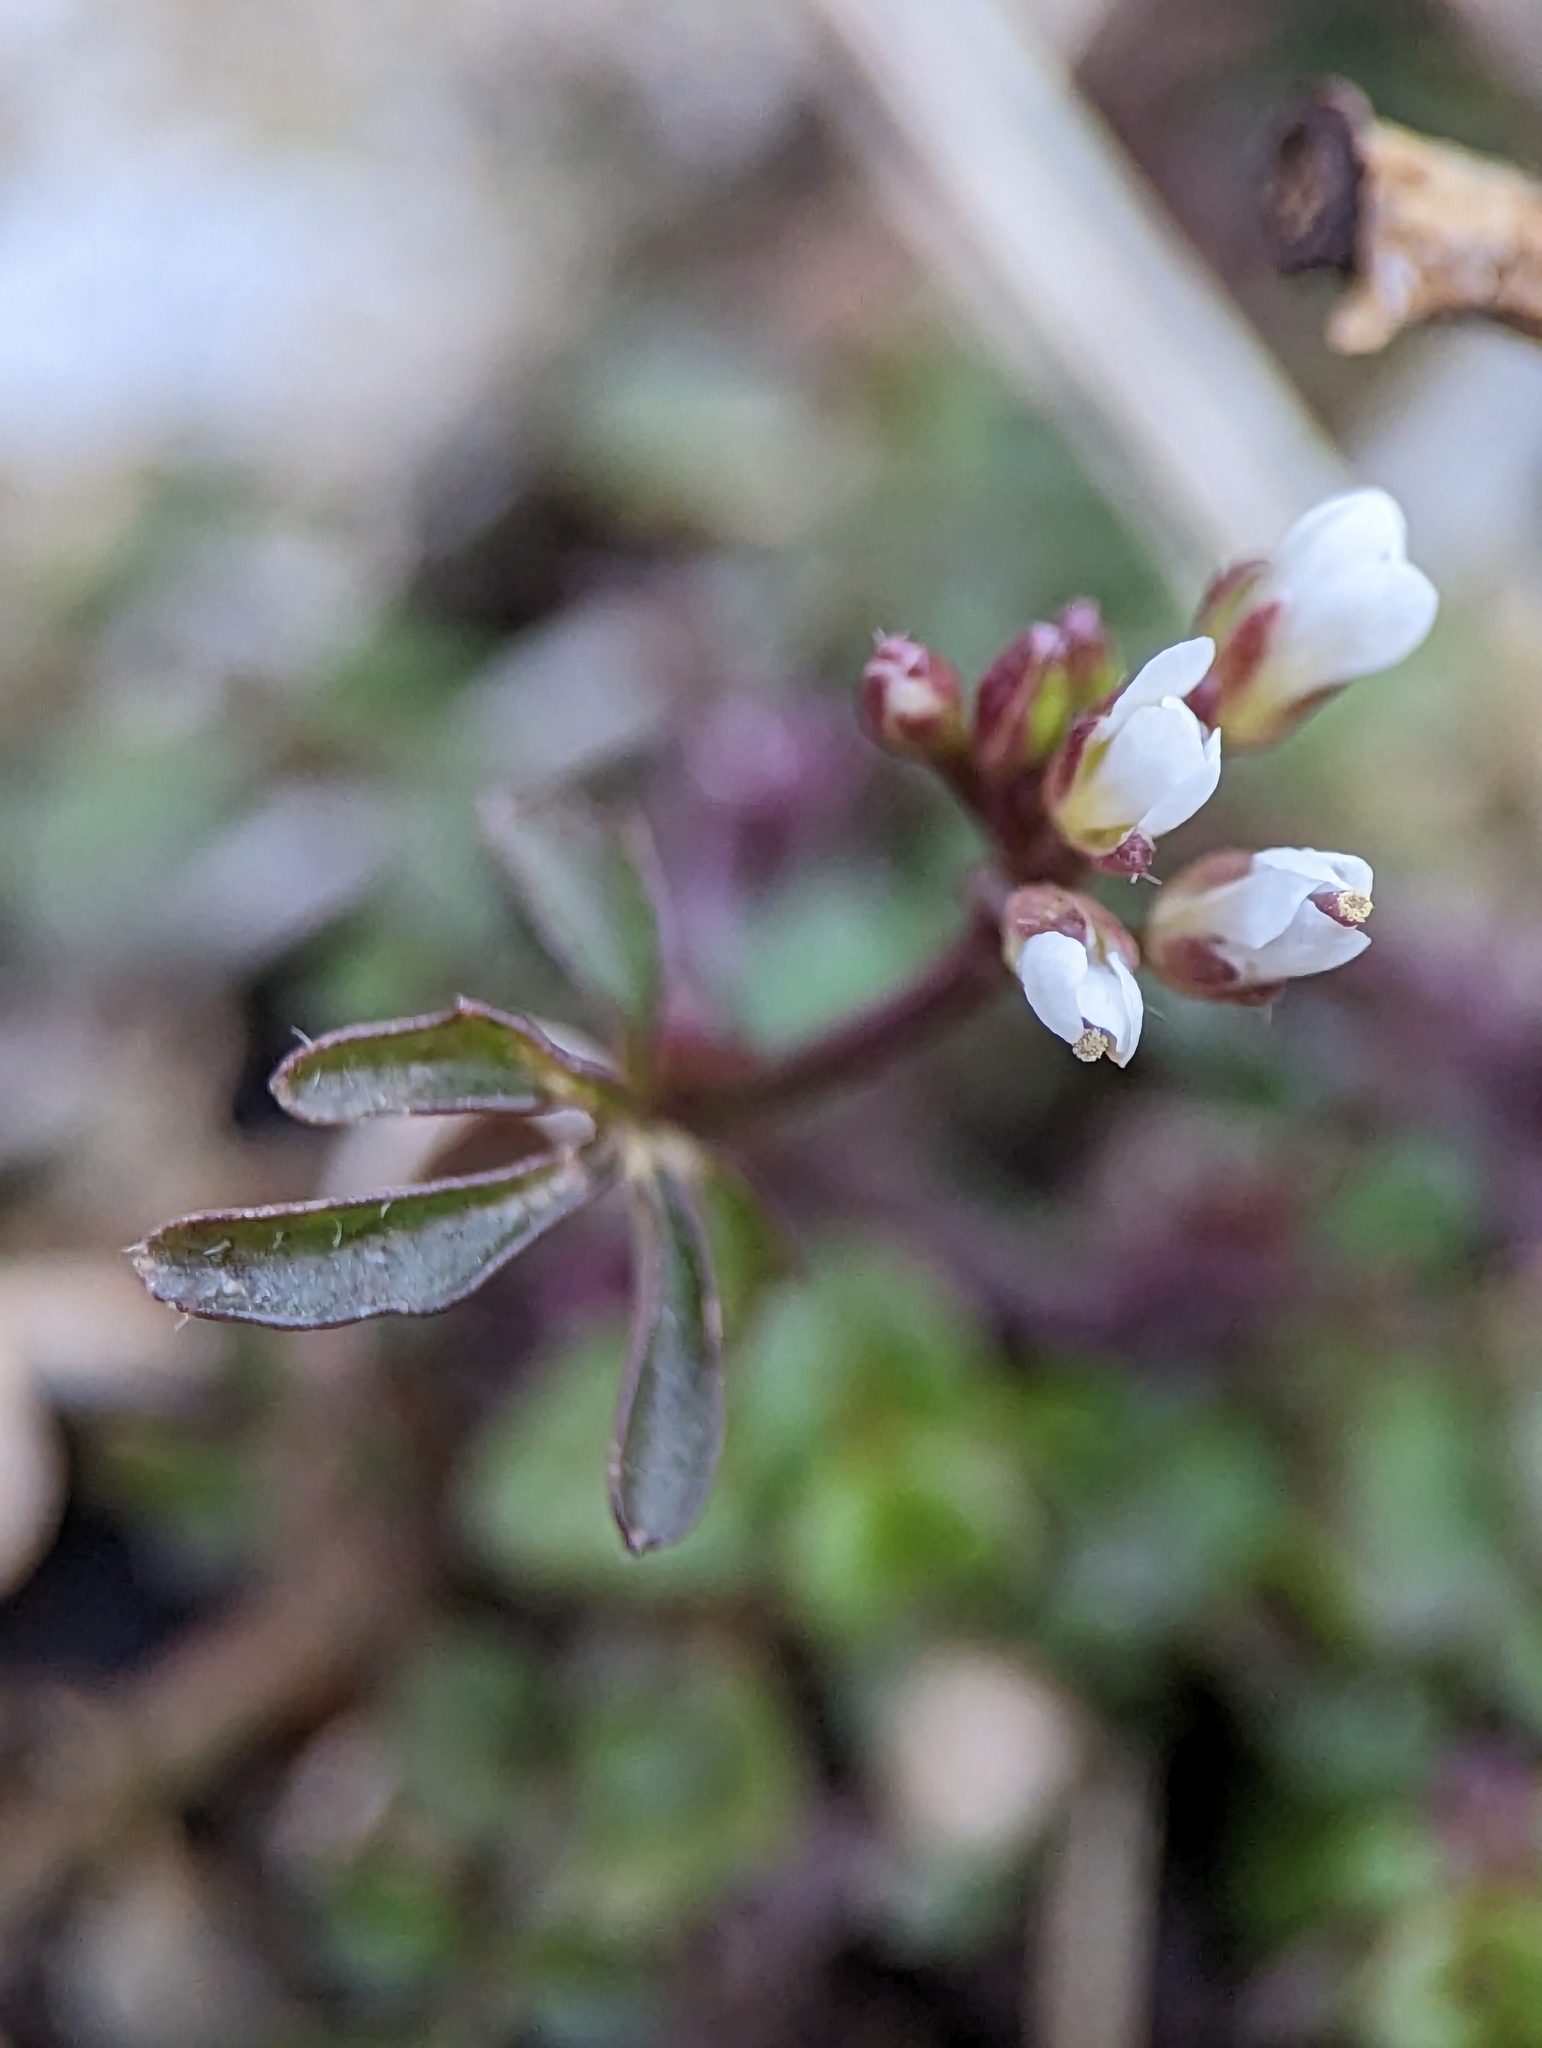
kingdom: Plantae
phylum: Tracheophyta
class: Magnoliopsida
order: Brassicales
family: Brassicaceae
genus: Cardamine
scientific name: Cardamine hirsuta
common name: Hairy bittercress
